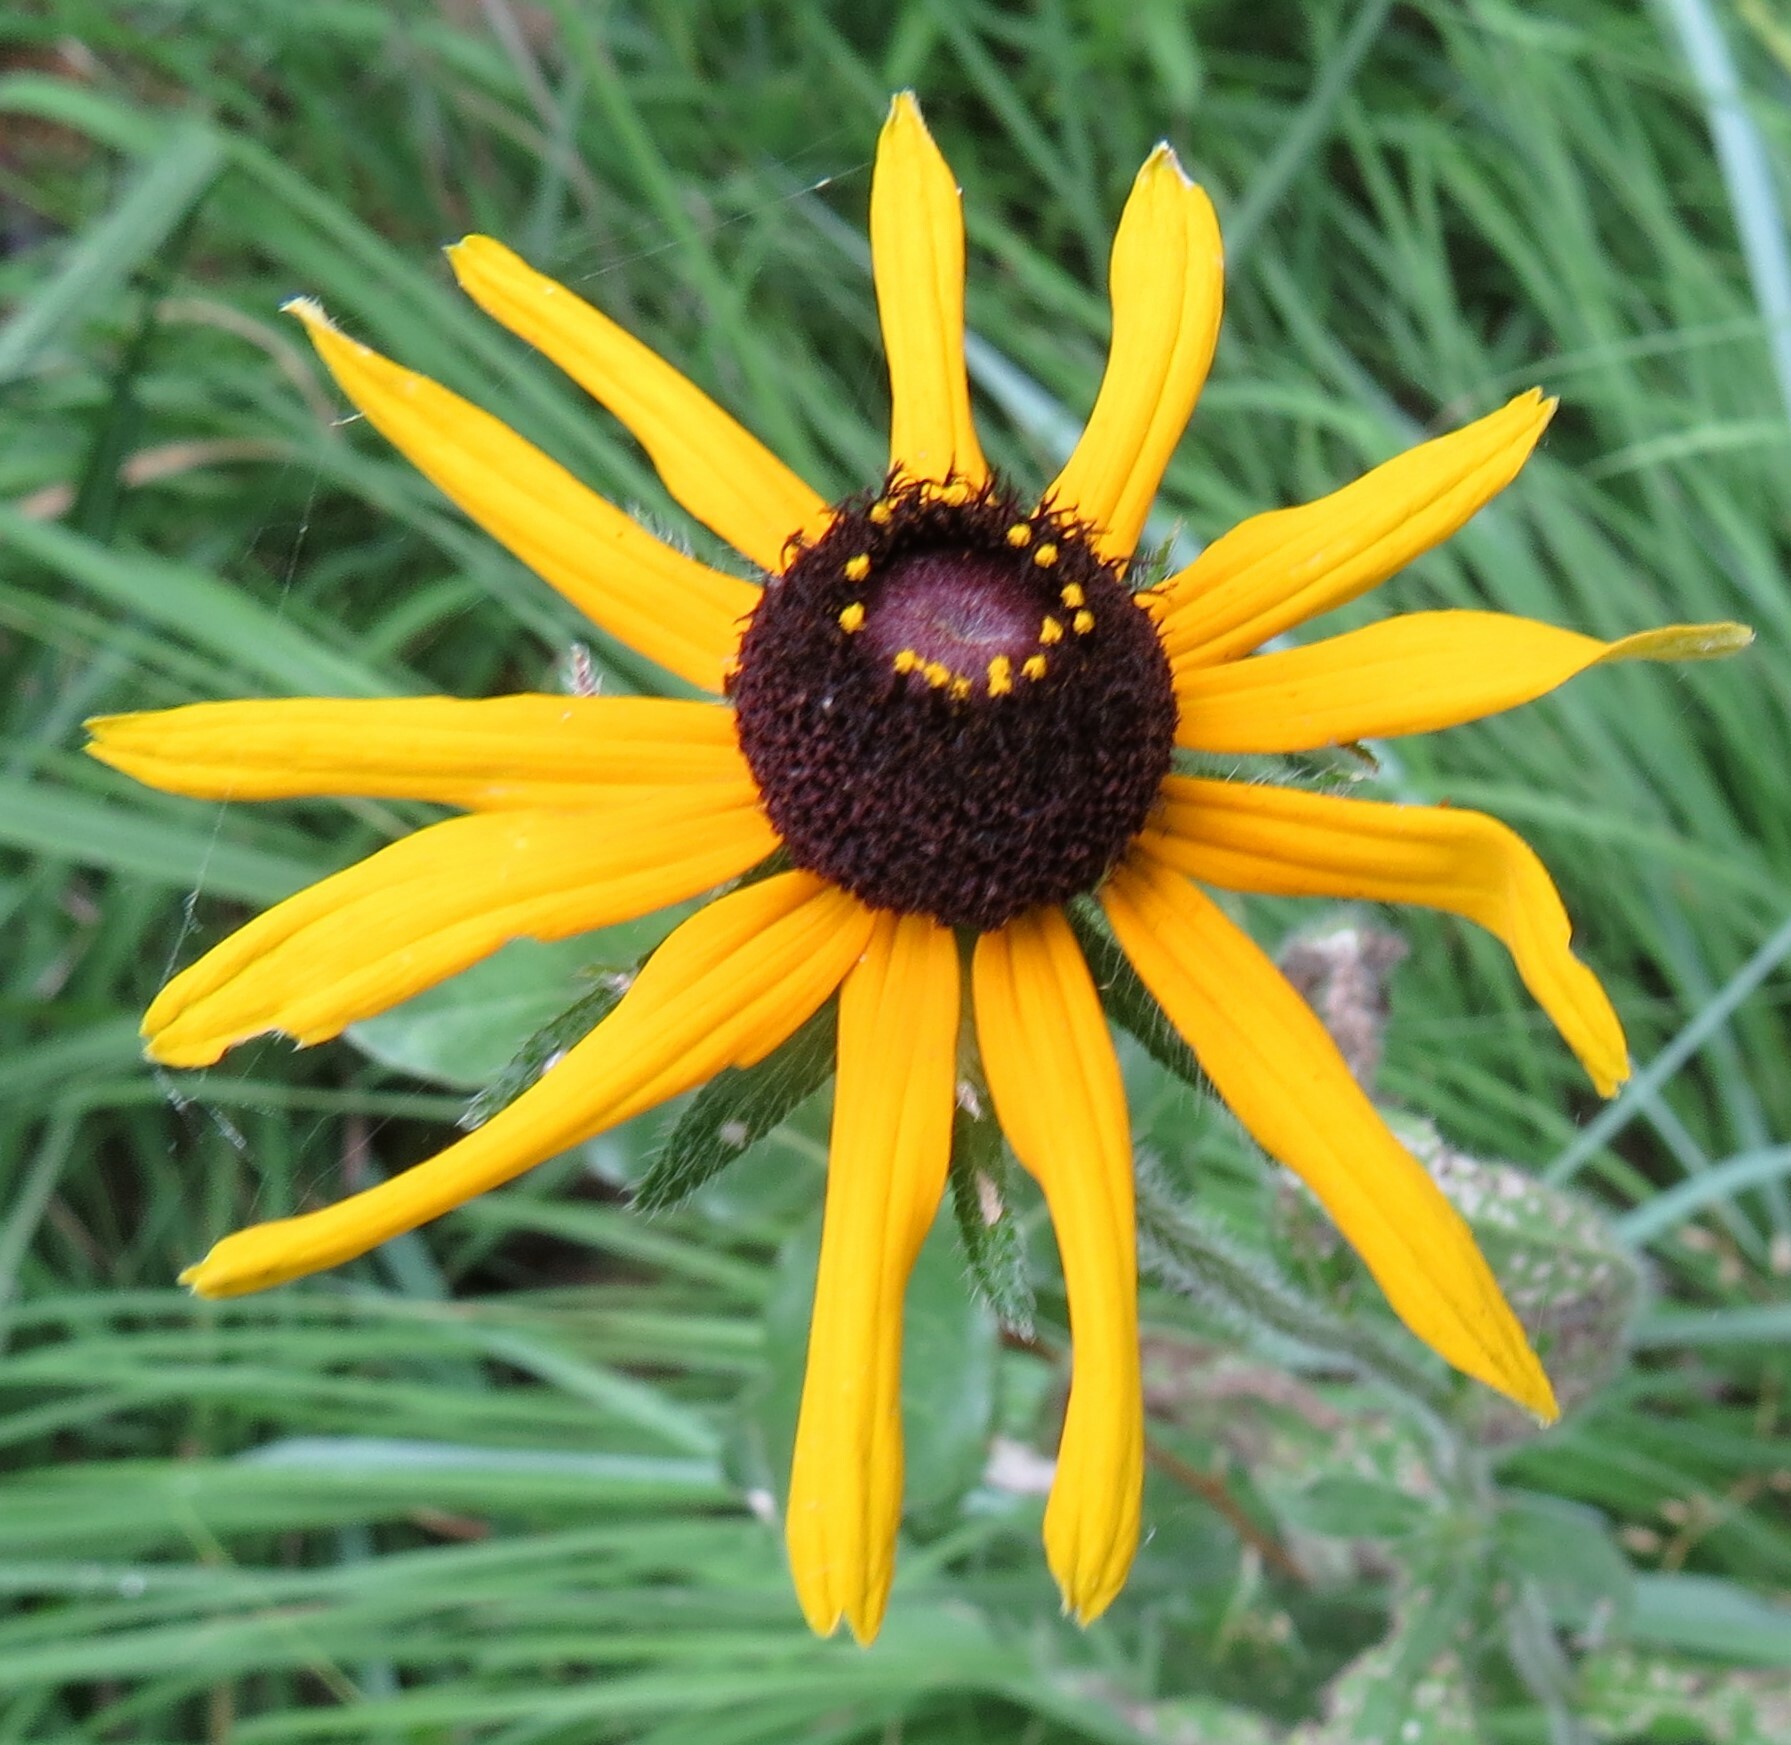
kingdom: Plantae
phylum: Tracheophyta
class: Magnoliopsida
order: Asterales
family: Asteraceae
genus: Rudbeckia
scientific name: Rudbeckia hirta
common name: Black-eyed-susan
